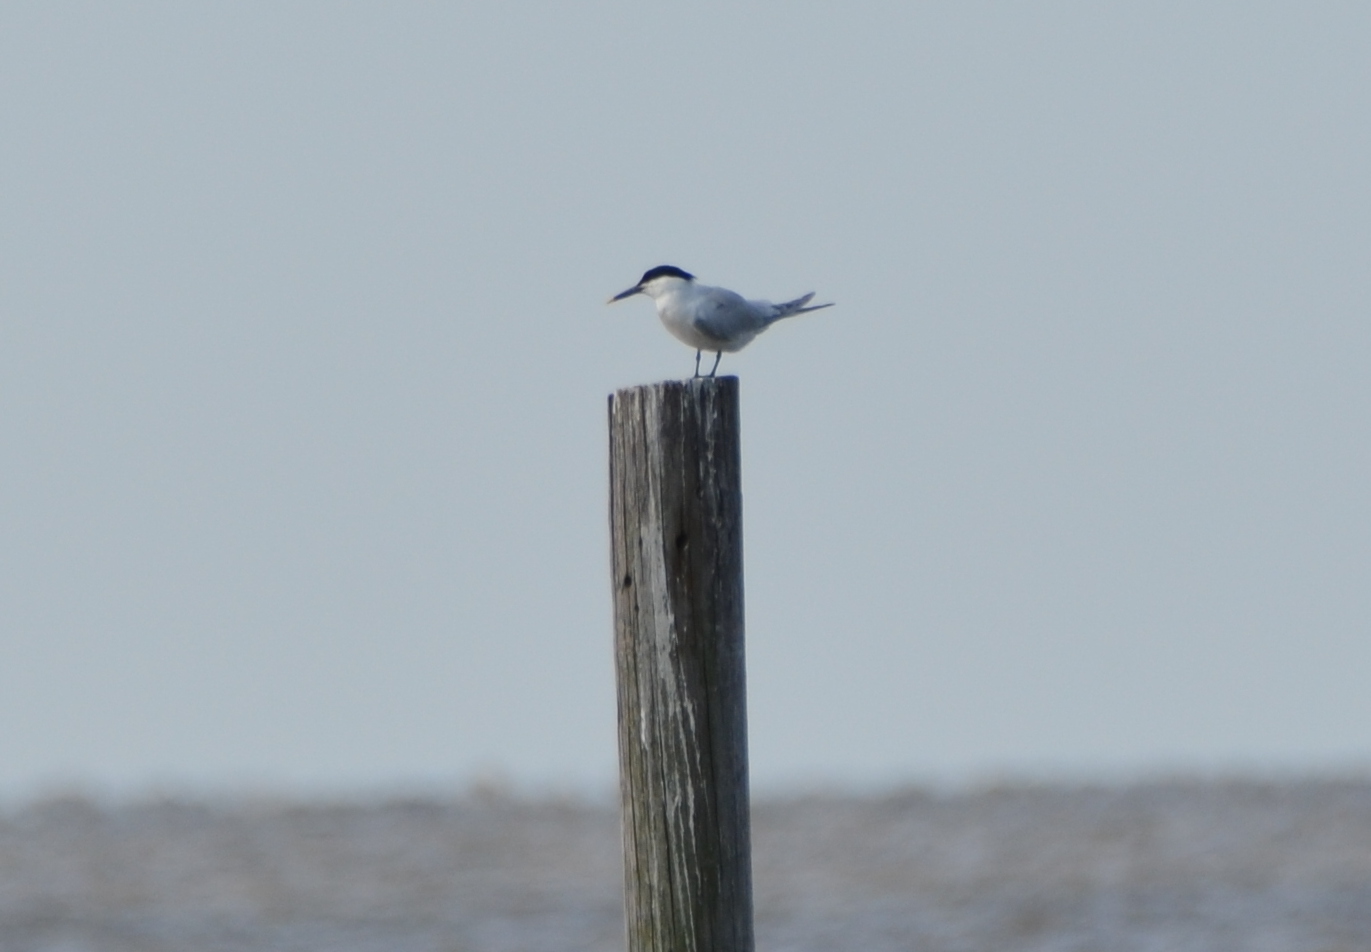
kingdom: Animalia
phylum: Chordata
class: Aves
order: Charadriiformes
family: Laridae
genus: Thalasseus
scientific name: Thalasseus sandvicensis
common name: Sandwich tern
